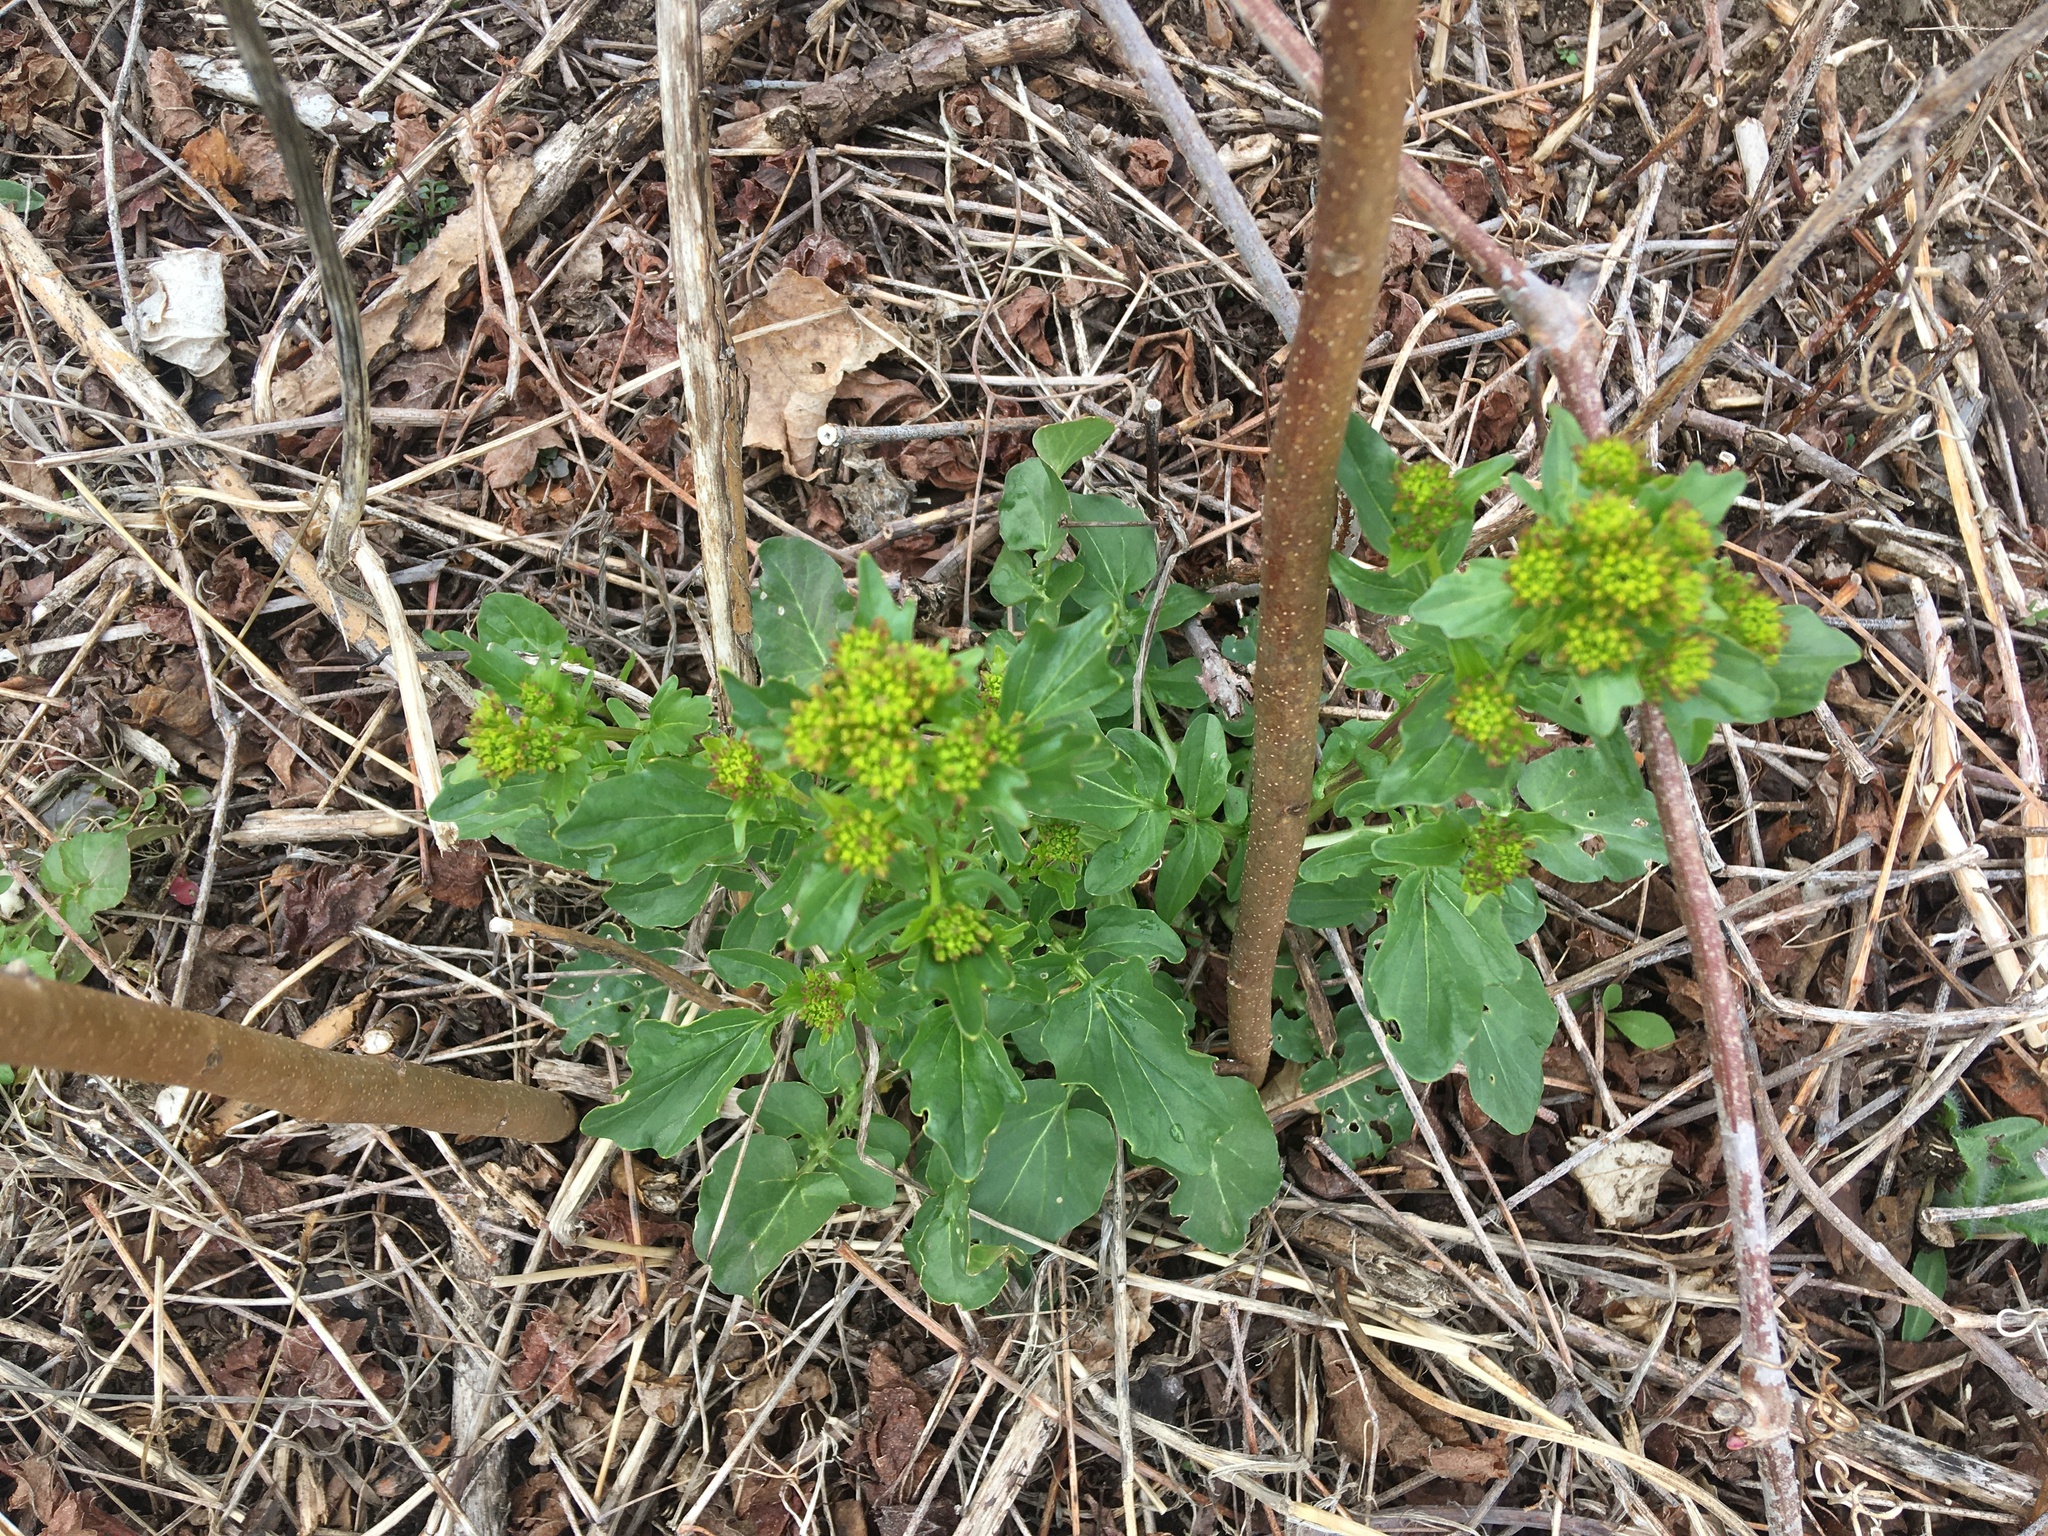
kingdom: Plantae
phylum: Tracheophyta
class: Magnoliopsida
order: Brassicales
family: Brassicaceae
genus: Barbarea
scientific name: Barbarea vulgaris
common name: Cressy-greens
